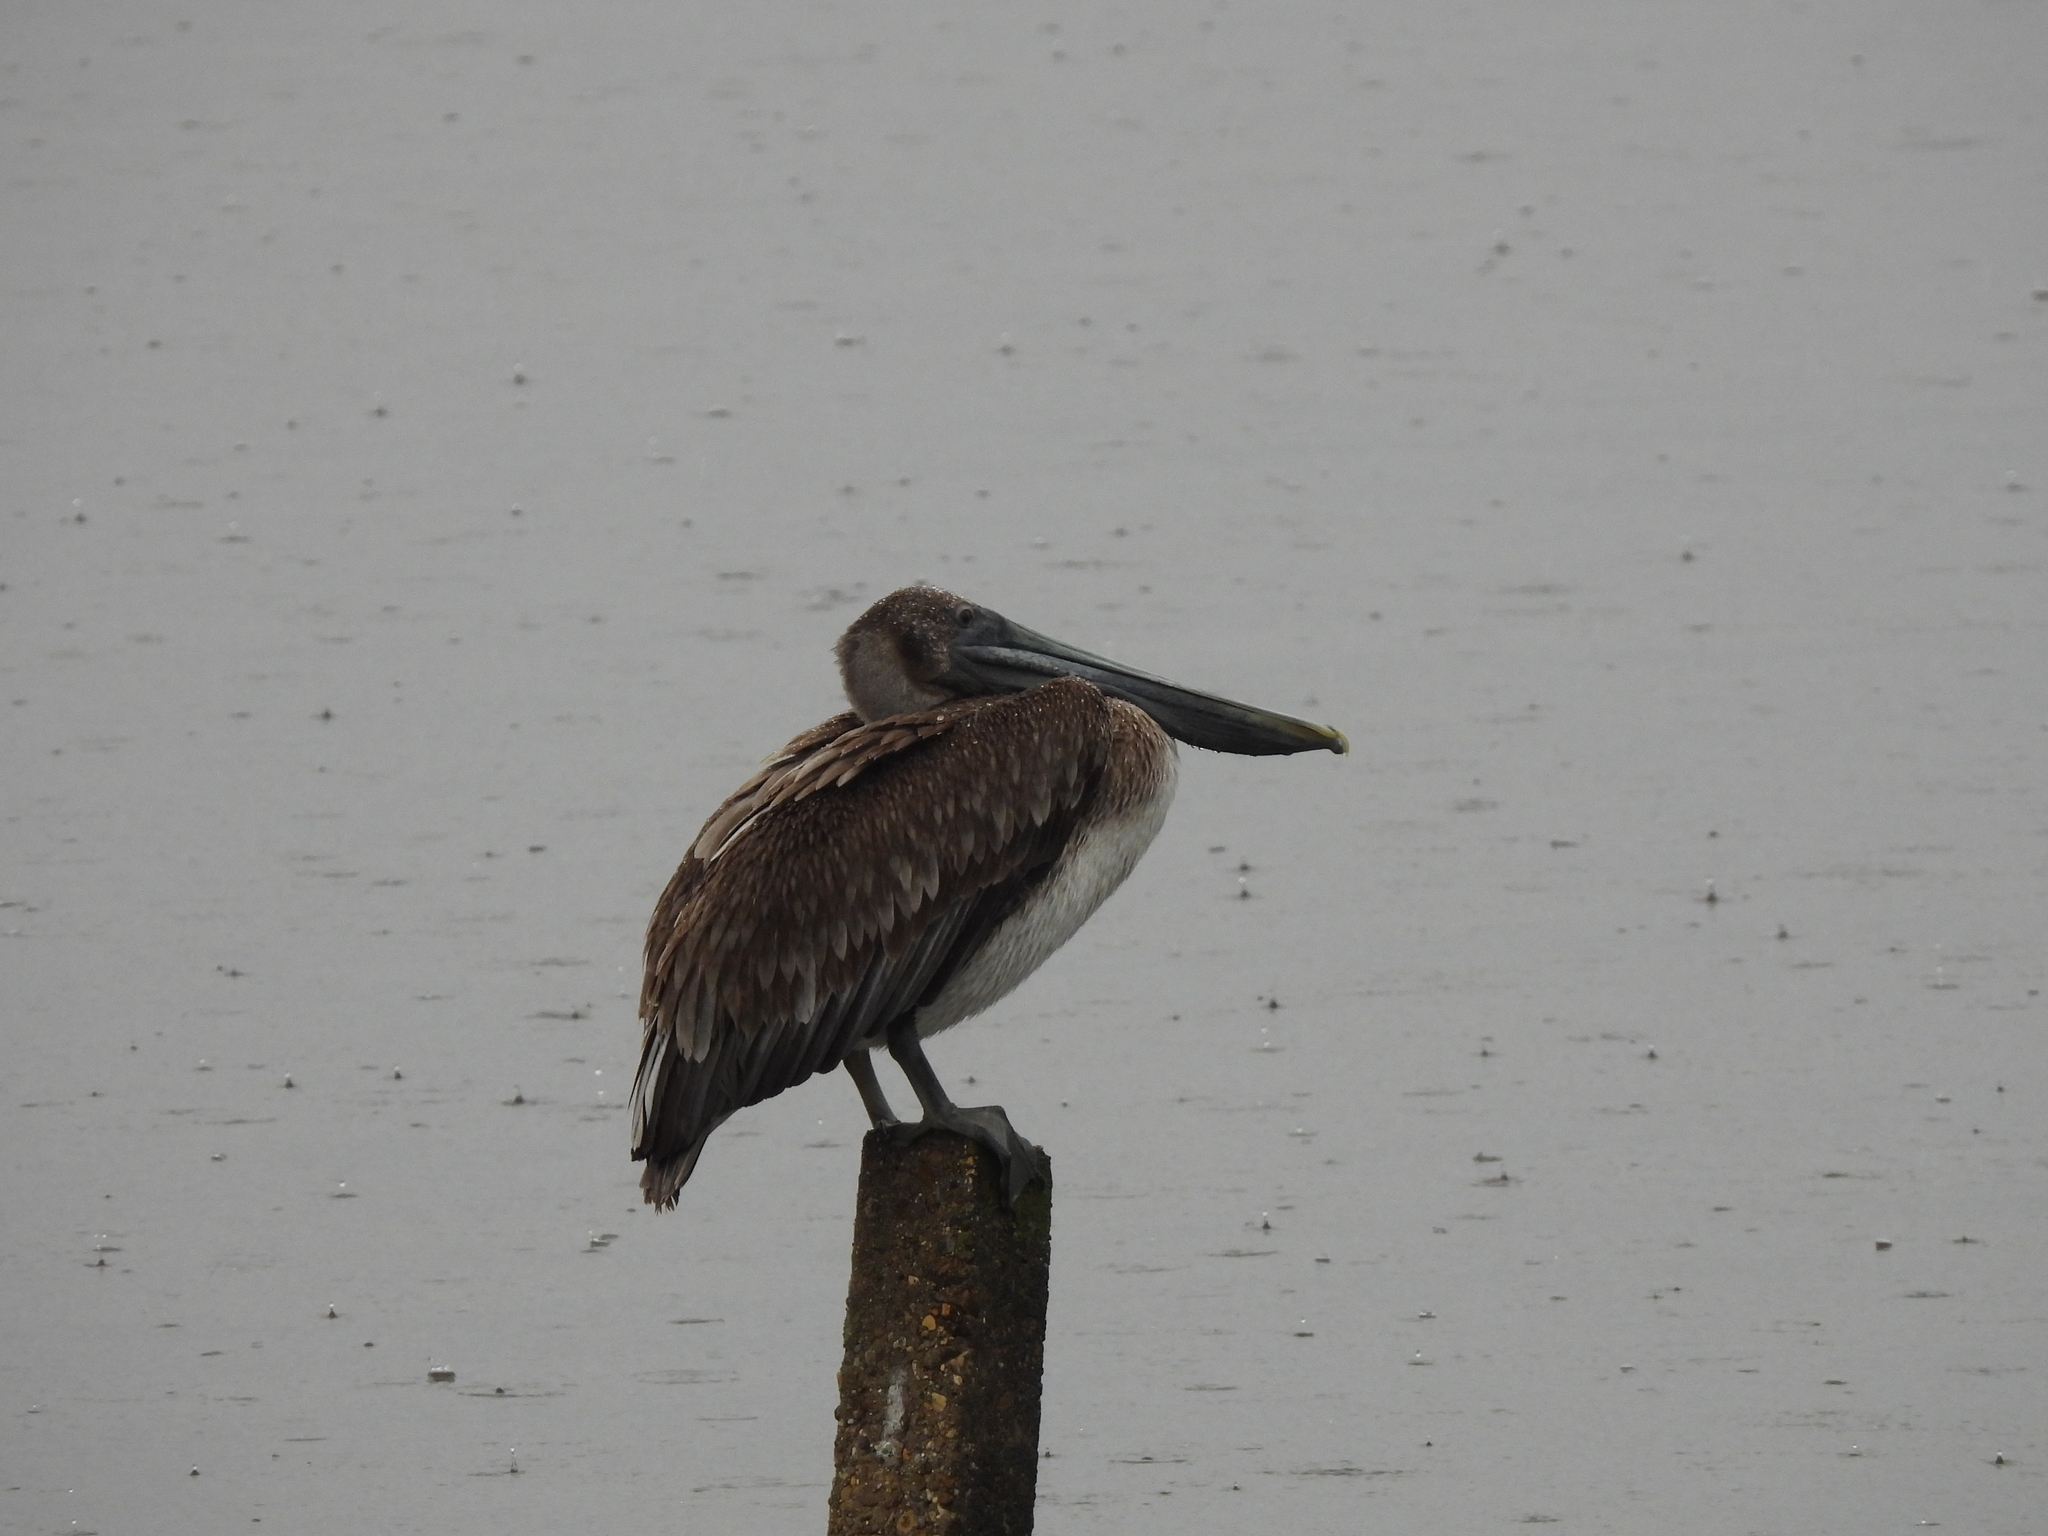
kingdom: Animalia
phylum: Chordata
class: Aves
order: Pelecaniformes
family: Pelecanidae
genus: Pelecanus
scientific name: Pelecanus occidentalis
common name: Brown pelican
